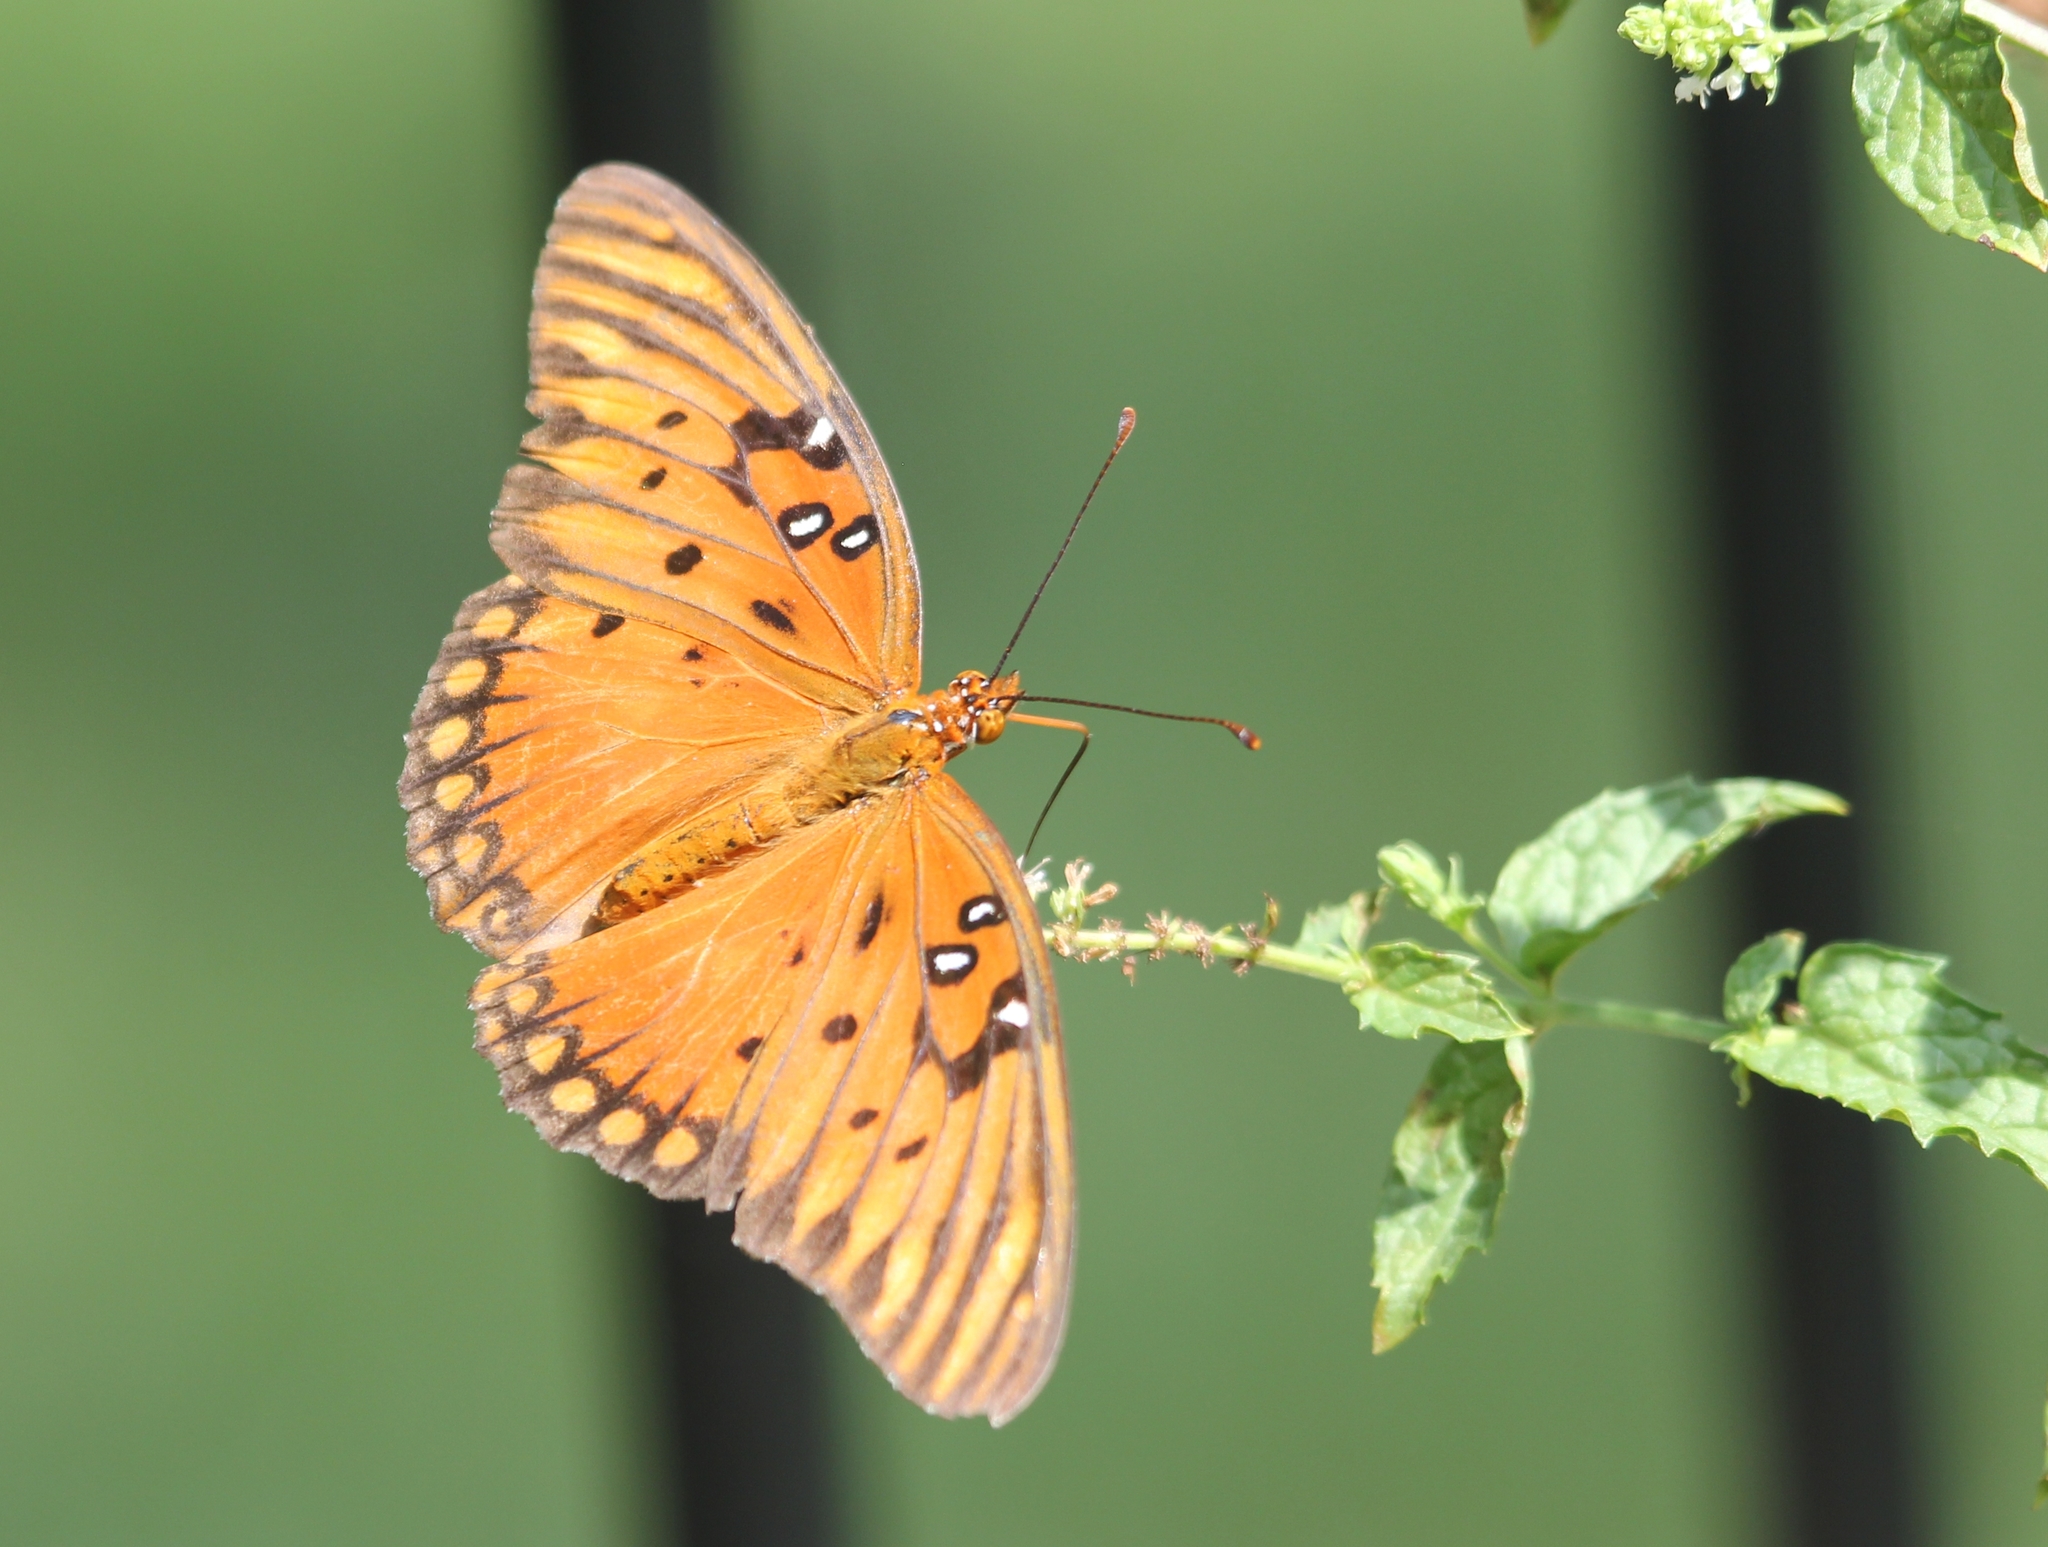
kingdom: Animalia
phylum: Arthropoda
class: Insecta
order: Lepidoptera
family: Nymphalidae
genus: Dione
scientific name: Dione vanillae
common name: Gulf fritillary
